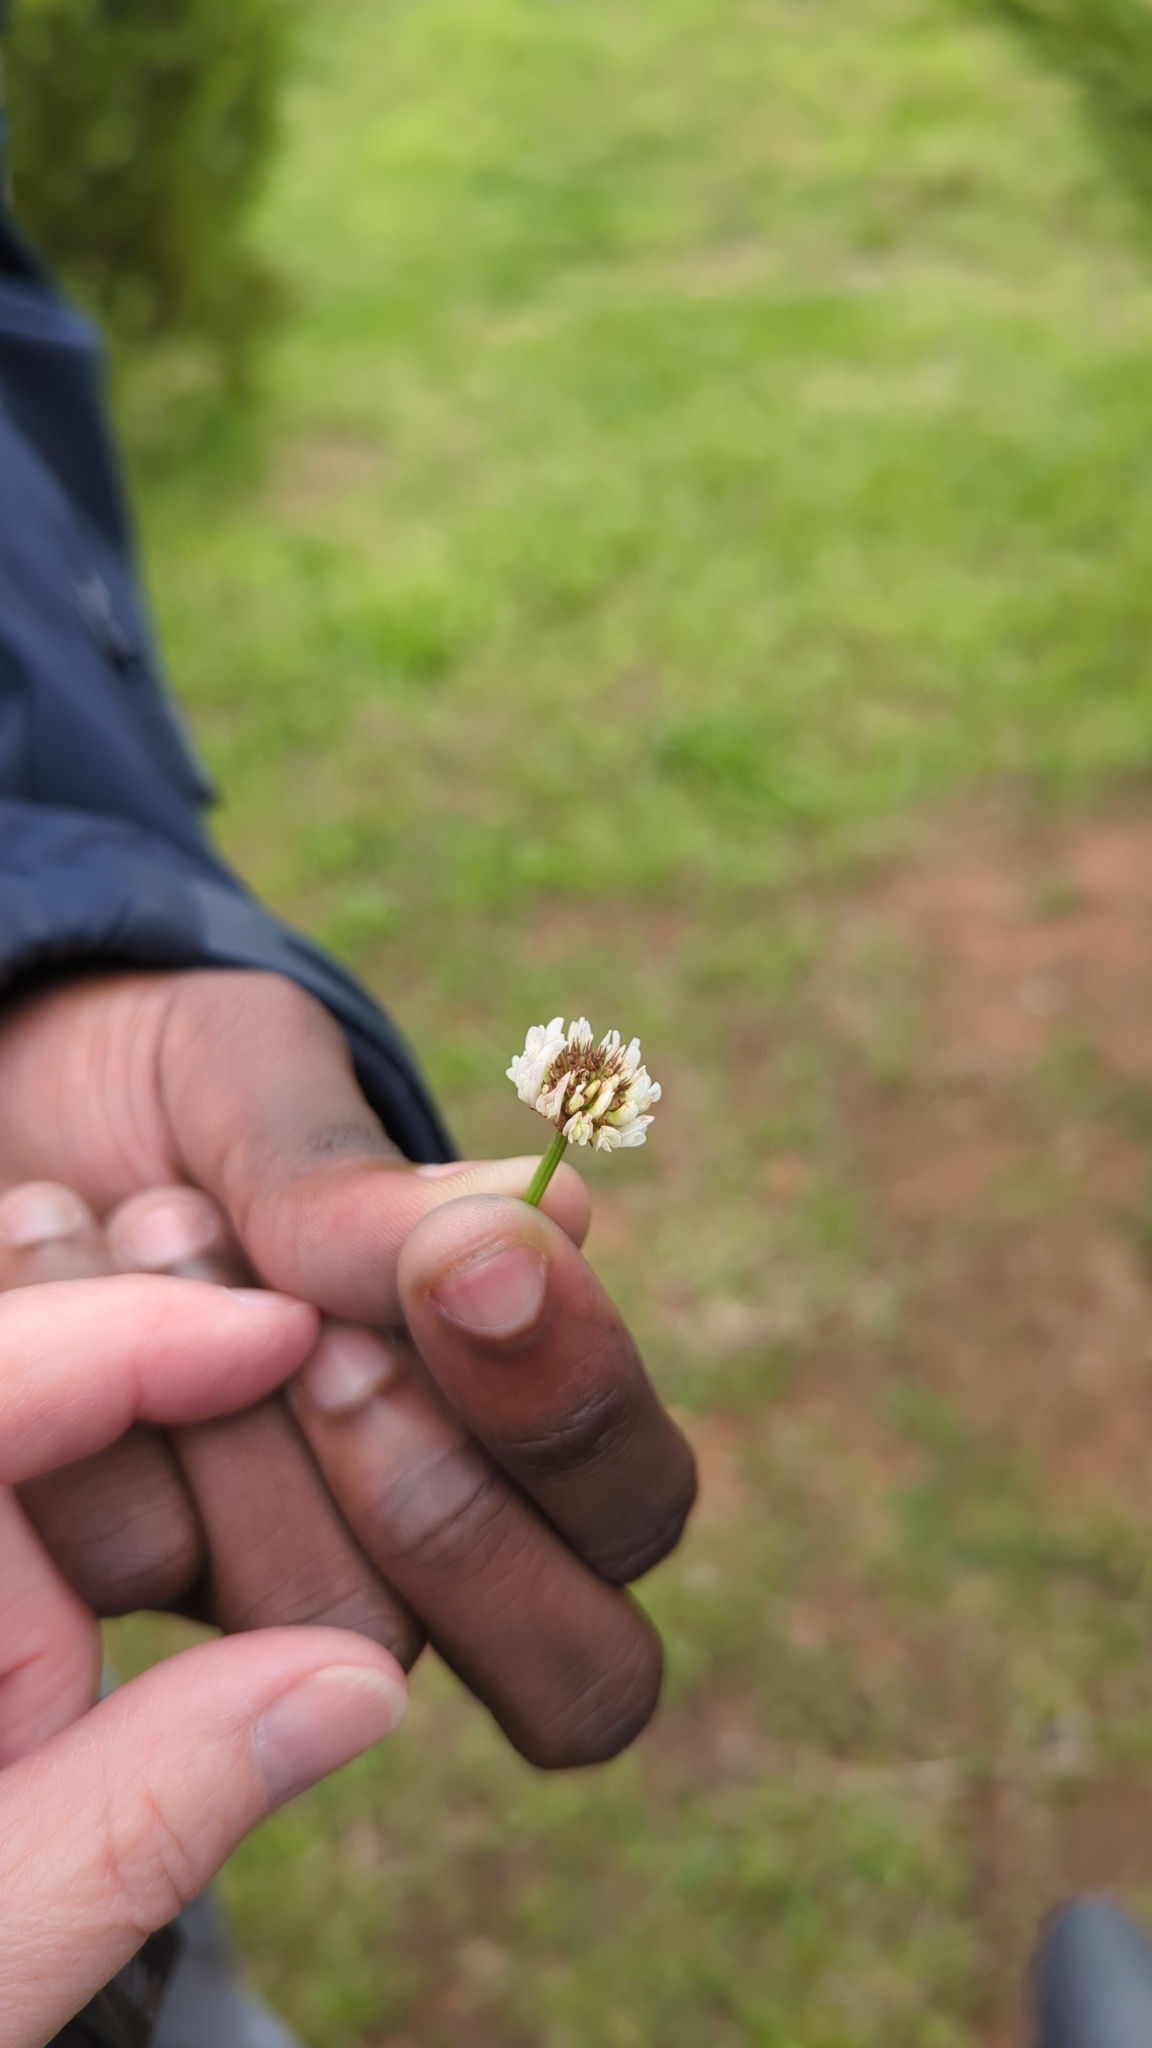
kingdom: Plantae
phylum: Tracheophyta
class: Magnoliopsida
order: Fabales
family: Fabaceae
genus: Trifolium
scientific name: Trifolium repens
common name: White clover
